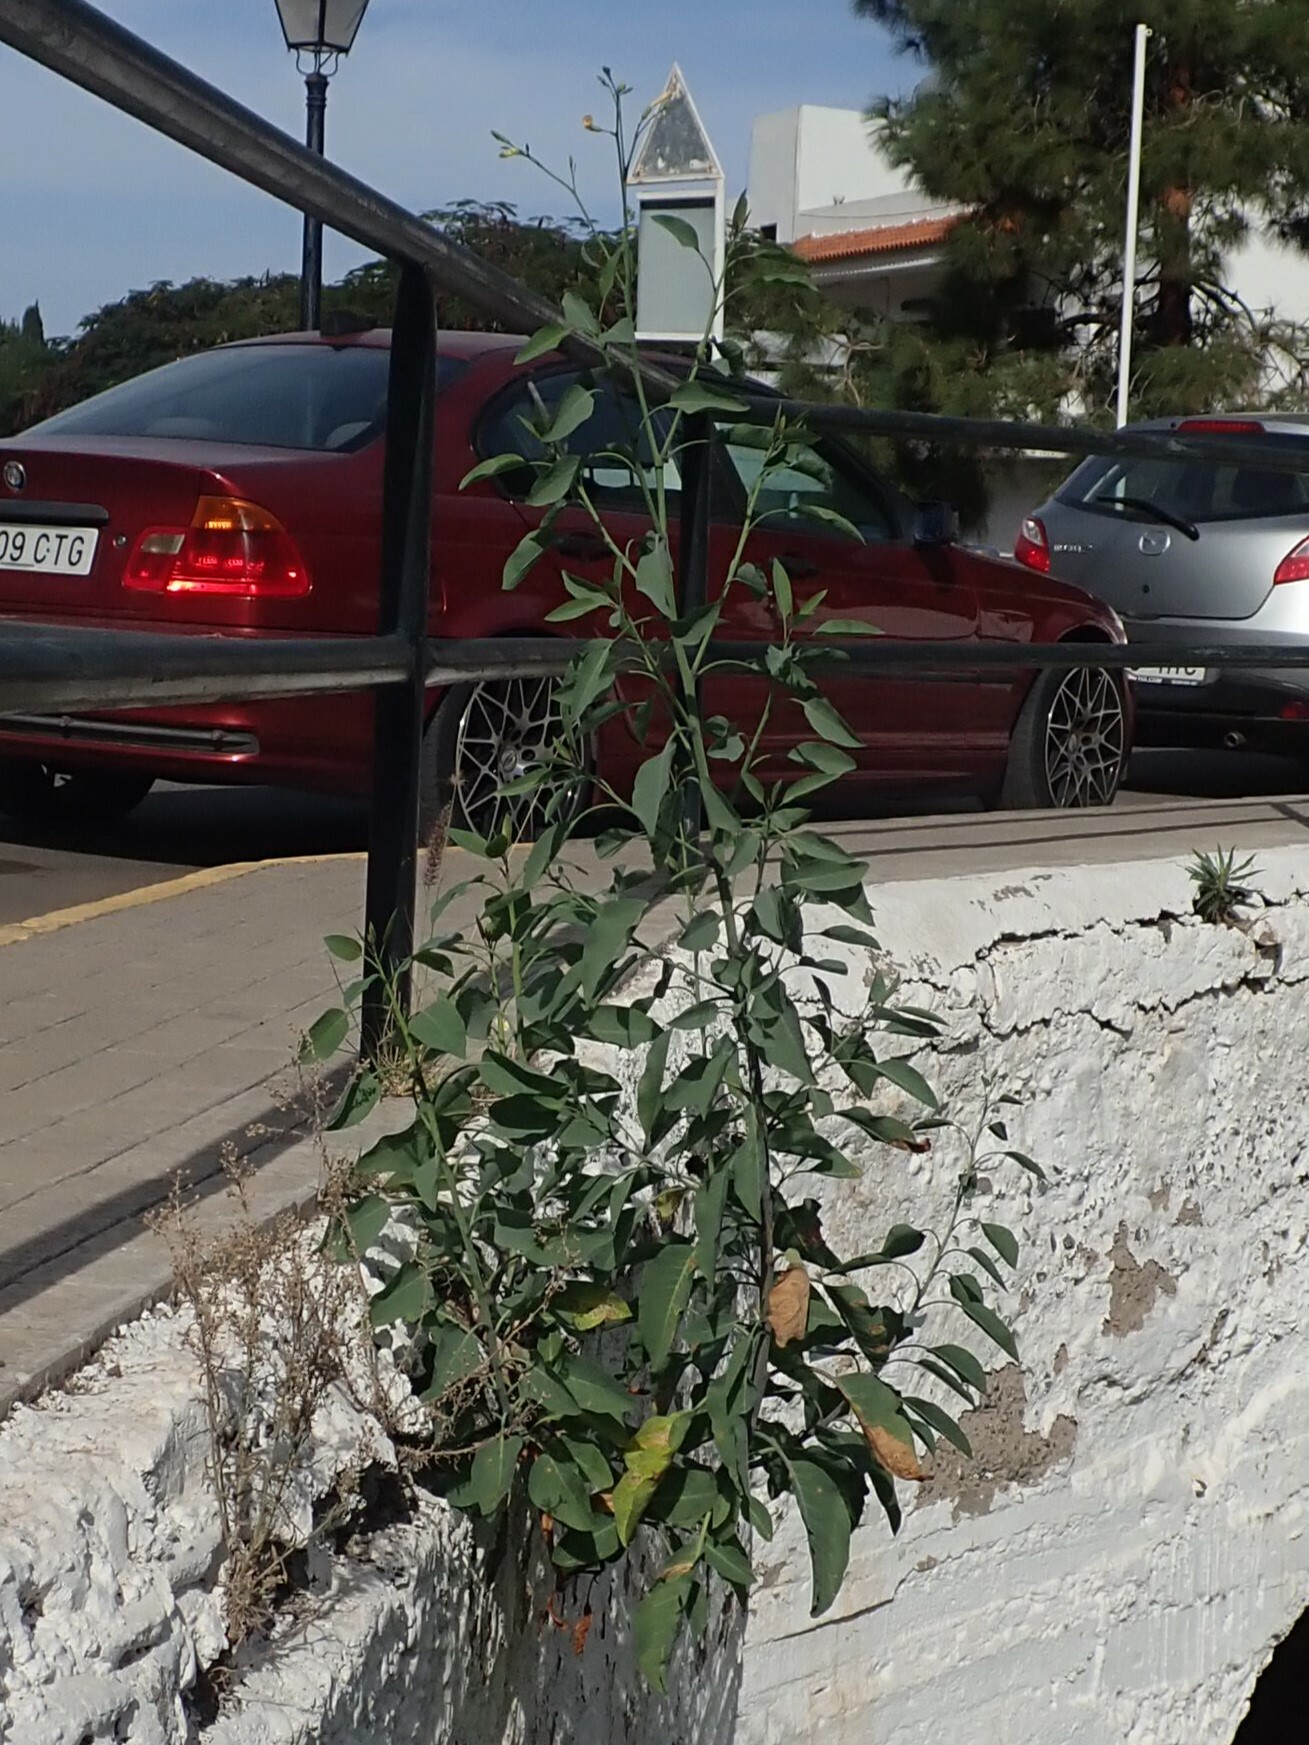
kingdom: Plantae
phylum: Tracheophyta
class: Magnoliopsida
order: Solanales
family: Solanaceae
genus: Nicotiana
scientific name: Nicotiana glauca
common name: Tree tobacco
